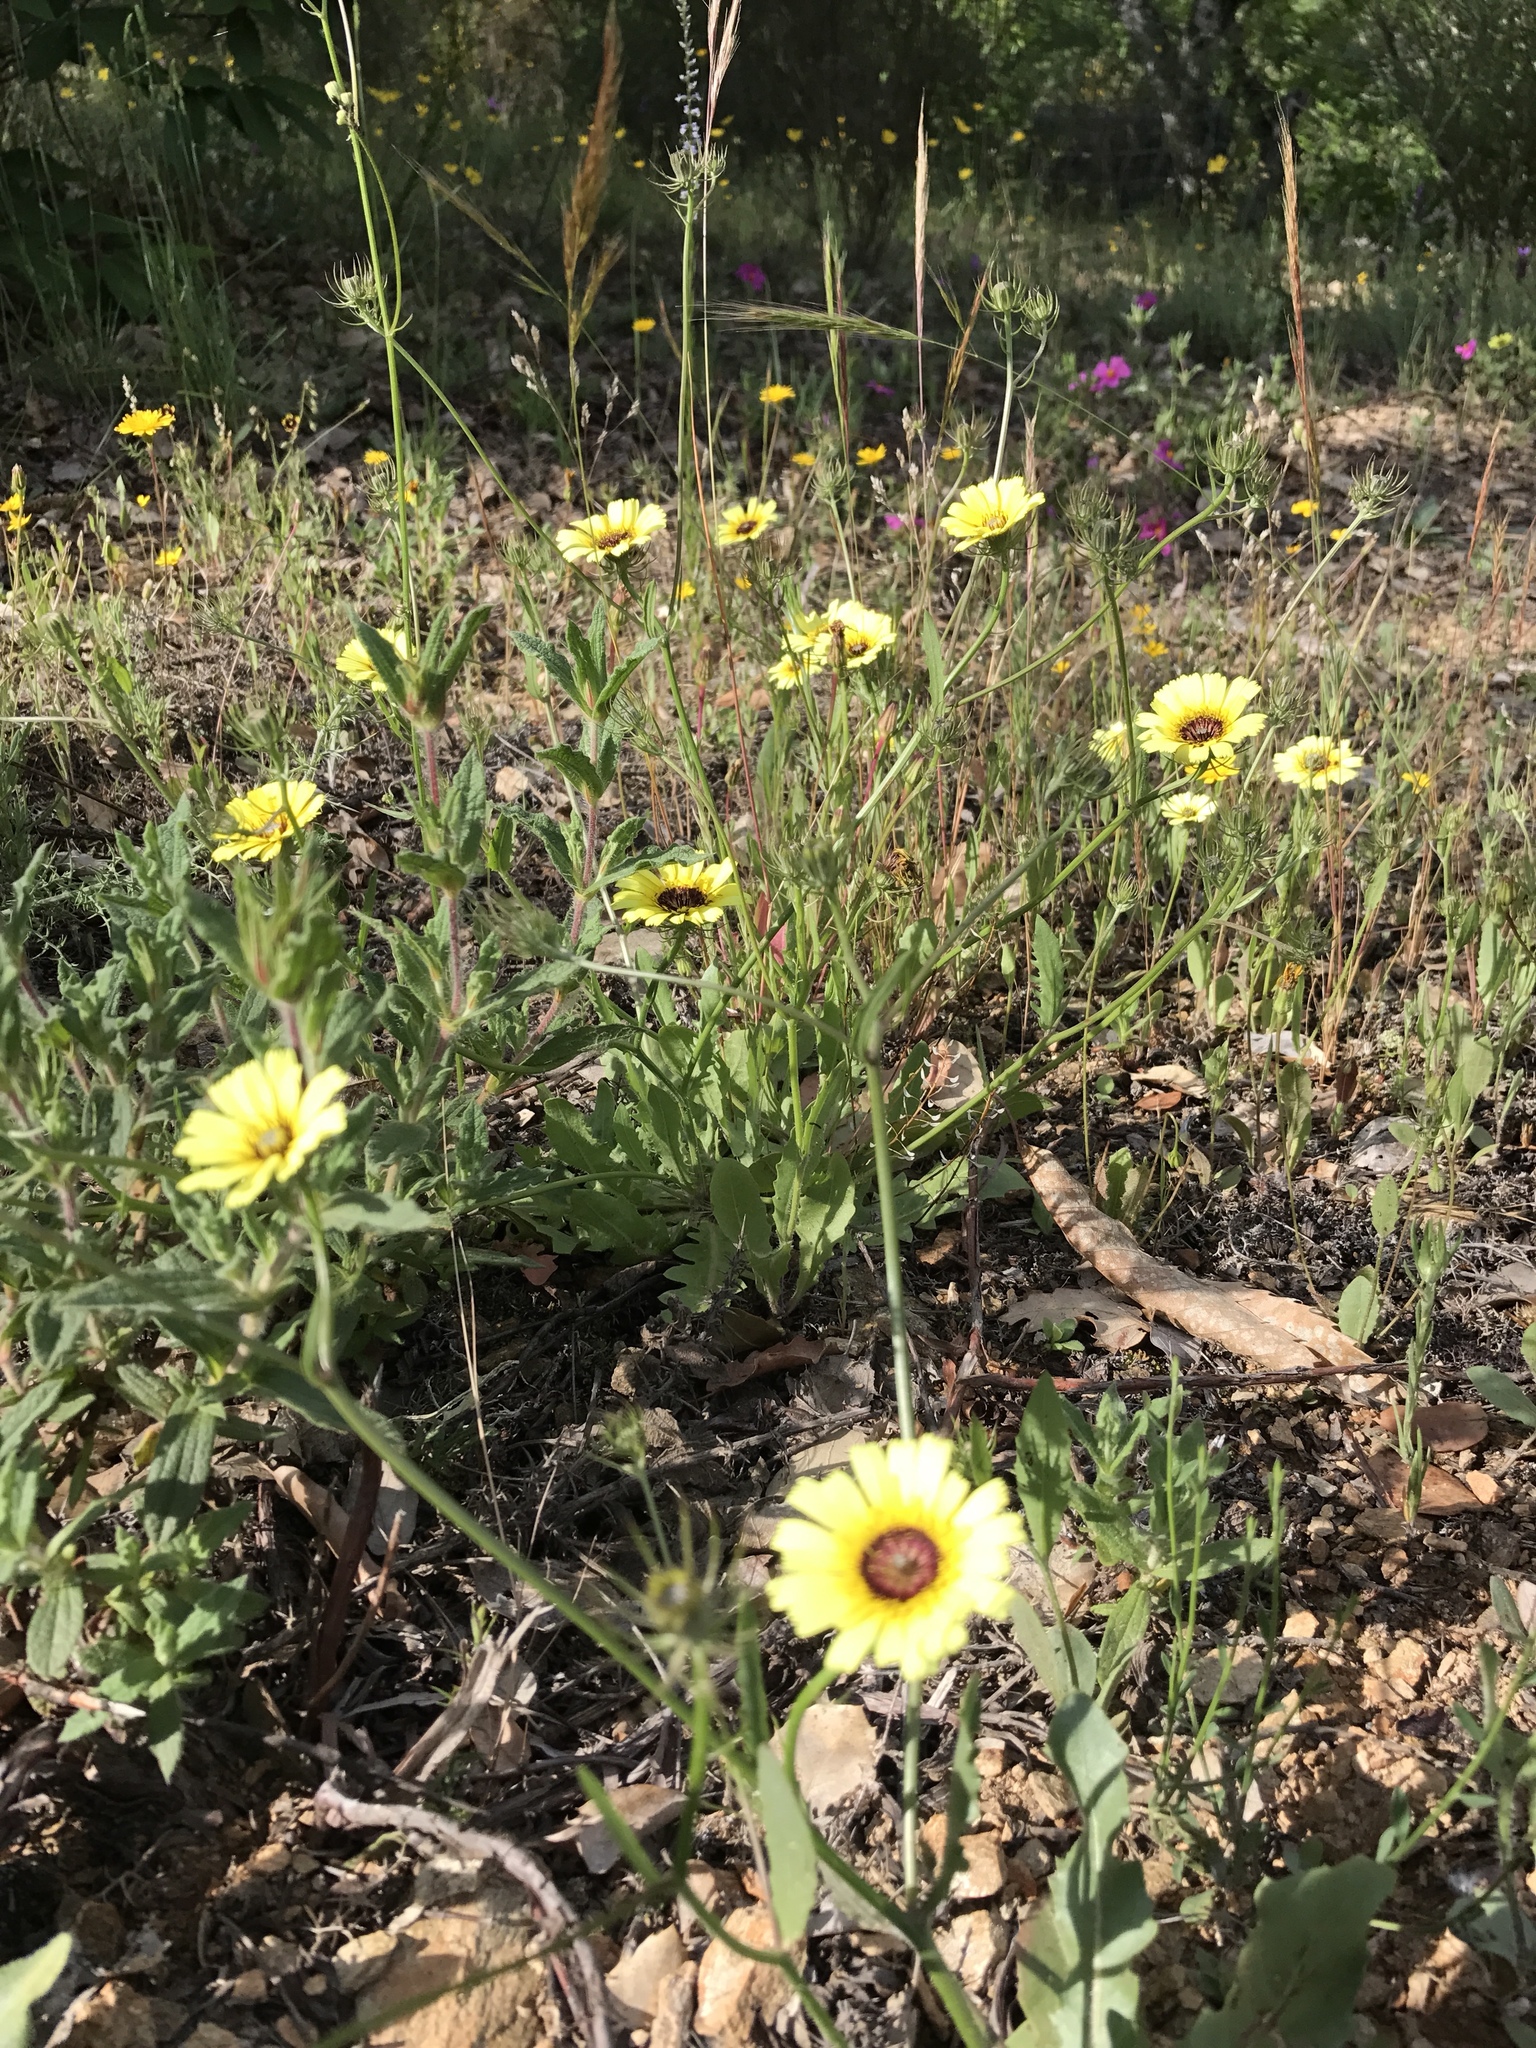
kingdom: Plantae
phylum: Tracheophyta
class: Magnoliopsida
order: Asterales
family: Asteraceae
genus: Tolpis
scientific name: Tolpis barbata
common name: Yellow hawkweed
